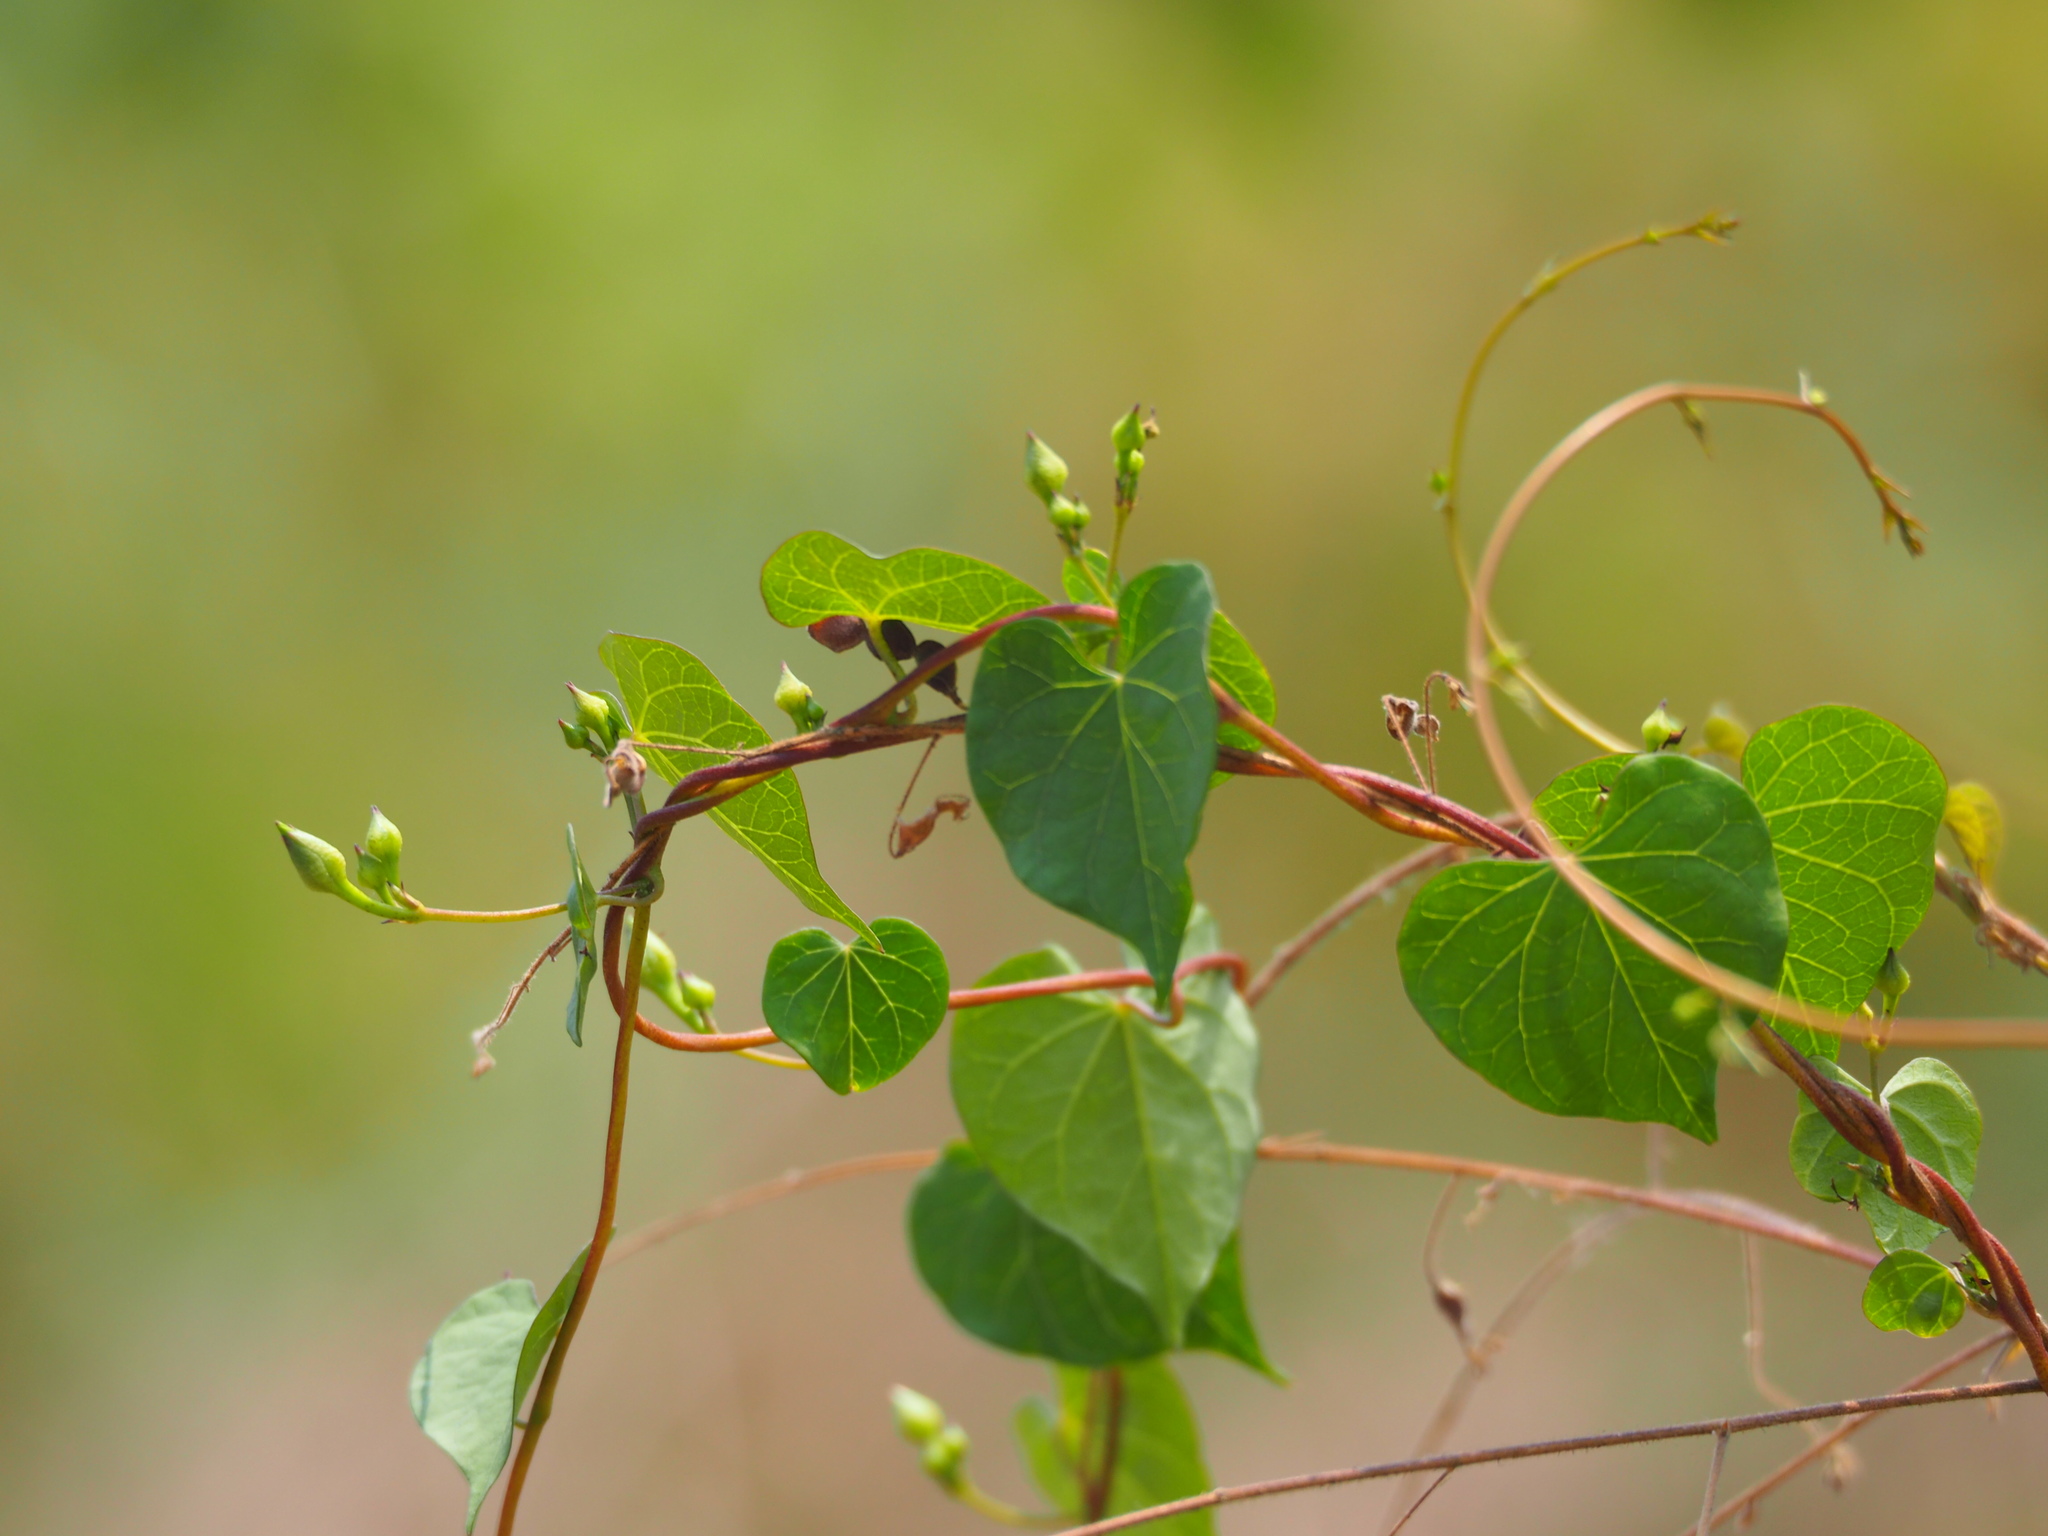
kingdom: Plantae
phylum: Tracheophyta
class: Magnoliopsida
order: Solanales
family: Convolvulaceae
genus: Ipomoea
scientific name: Ipomoea obscura
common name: Obscure morning-glory
